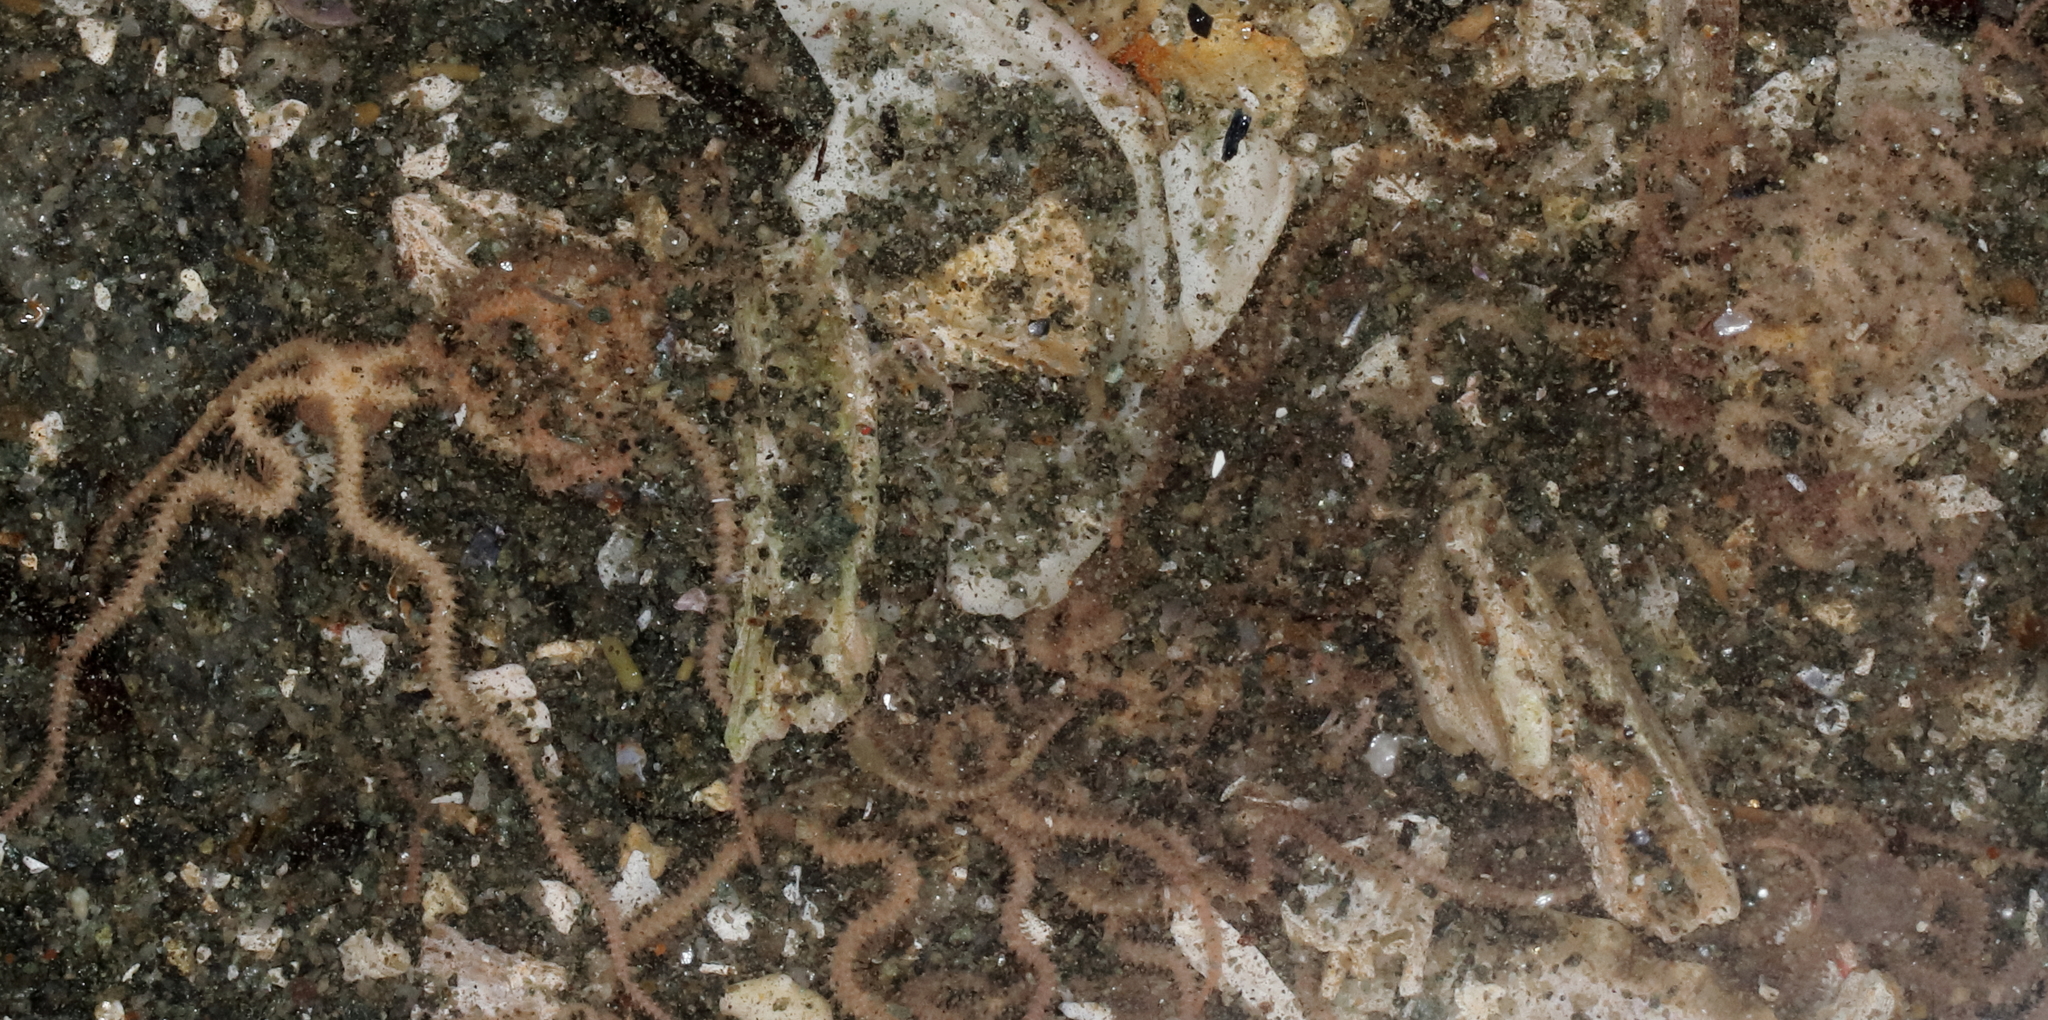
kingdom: Animalia
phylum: Echinodermata
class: Ophiuroidea
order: Amphilepidida
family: Amphiuridae
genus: Amphiodia
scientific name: Amphiodia occidentalis
